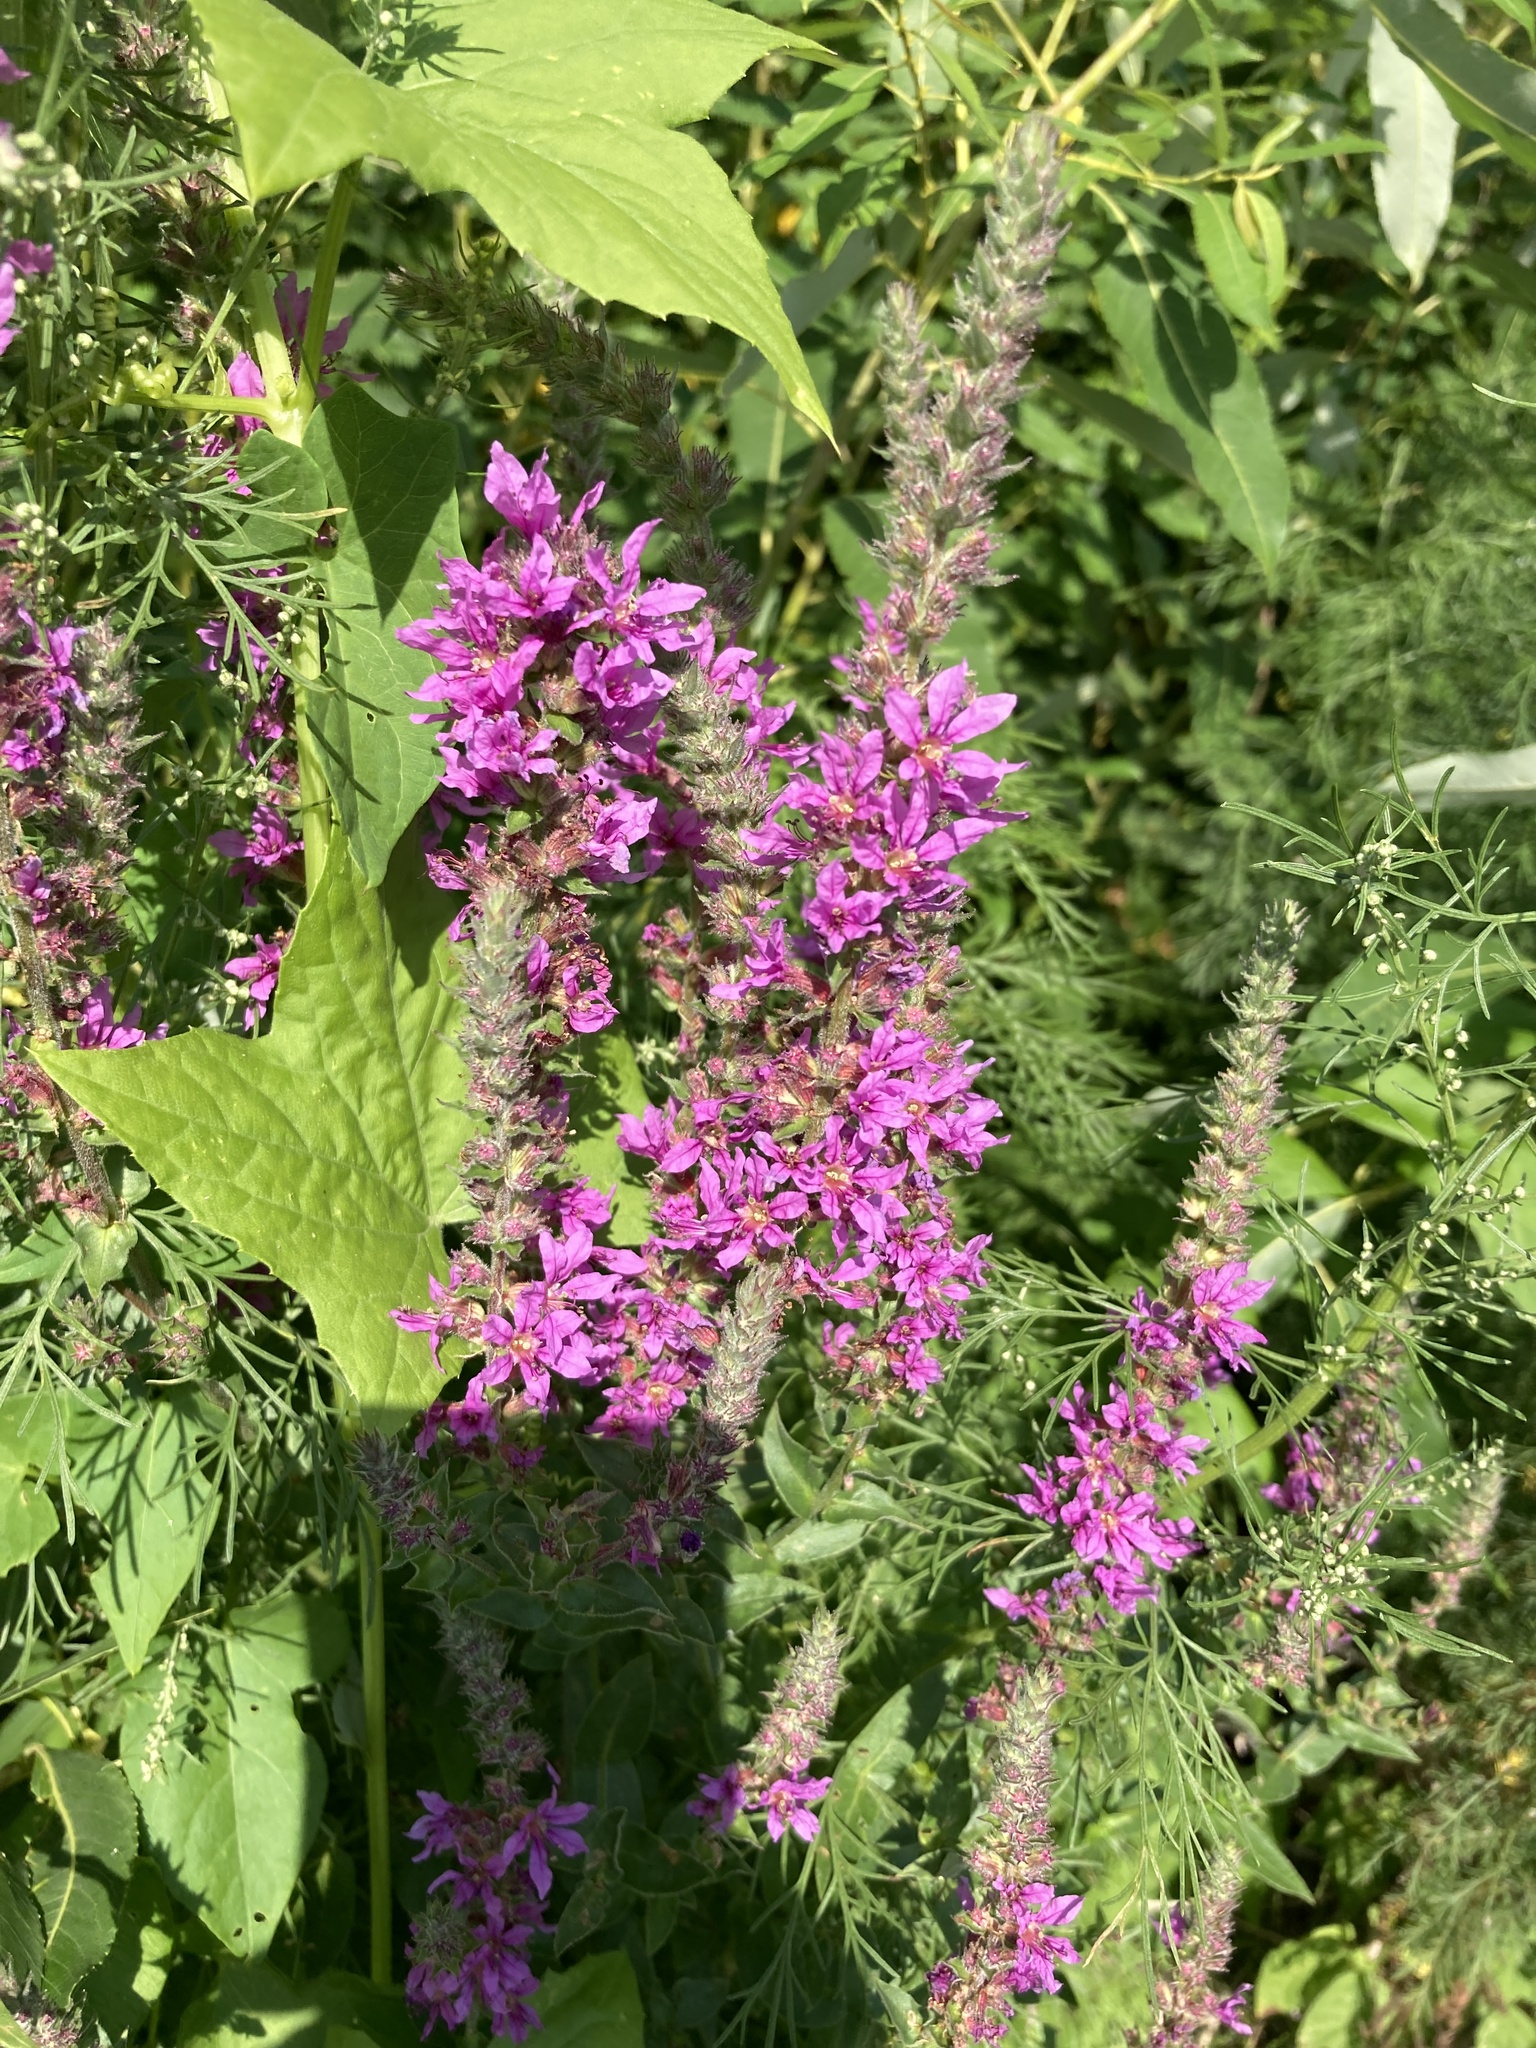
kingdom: Plantae
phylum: Tracheophyta
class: Magnoliopsida
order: Myrtales
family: Lythraceae
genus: Lythrum
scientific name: Lythrum salicaria
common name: Purple loosestrife
